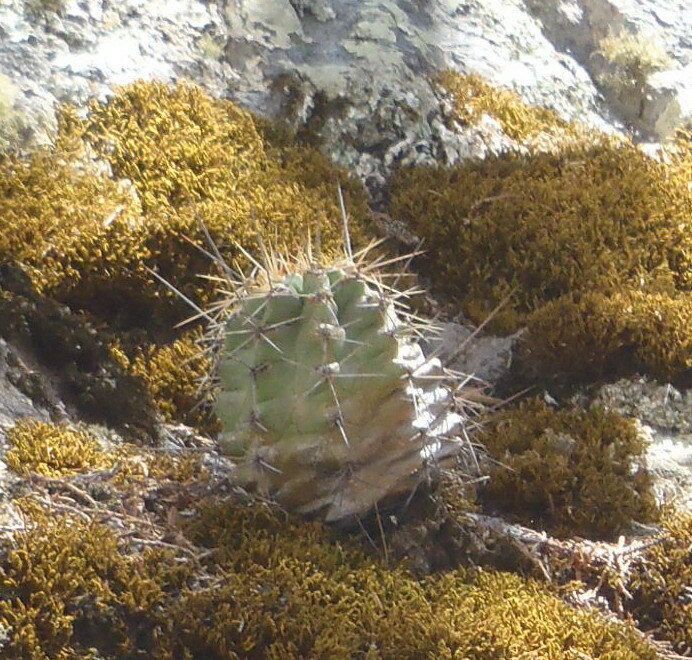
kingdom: Plantae
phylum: Tracheophyta
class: Magnoliopsida
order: Caryophyllales
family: Cactaceae
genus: Echinocereus
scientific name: Echinocereus coccineus
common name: Scarlet hedgehog cactus
